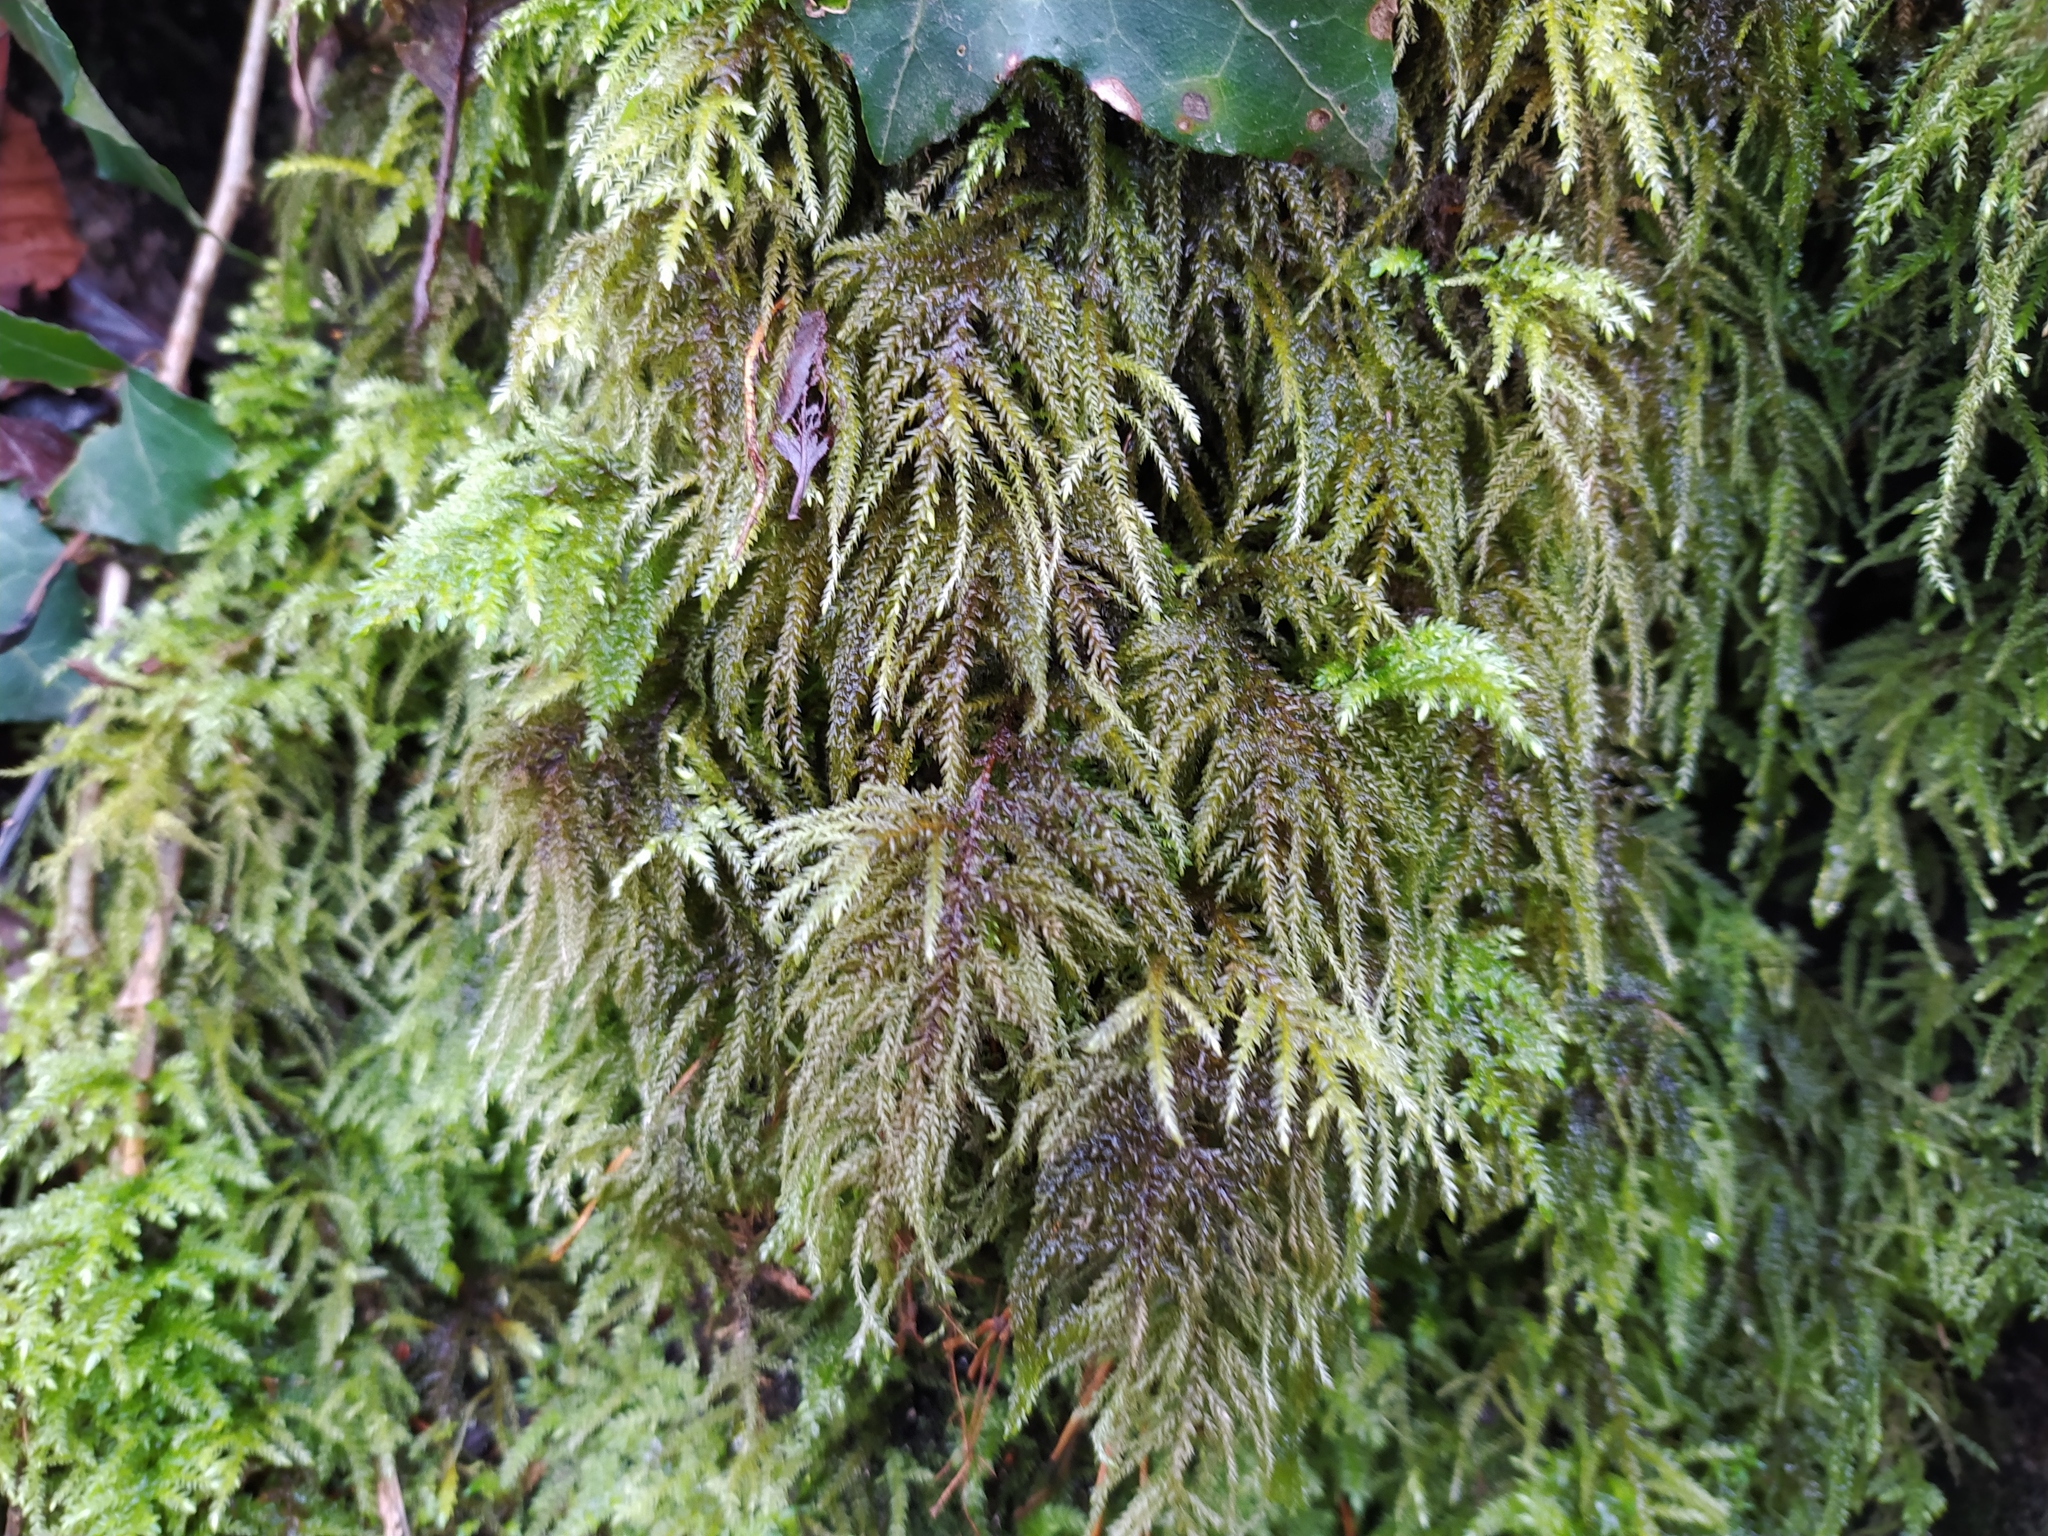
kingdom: Plantae
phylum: Bryophyta
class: Bryopsida
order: Hypnales
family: Neckeraceae
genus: Thamnobryum
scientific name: Thamnobryum alopecurum
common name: Fox-tail feather-moss
